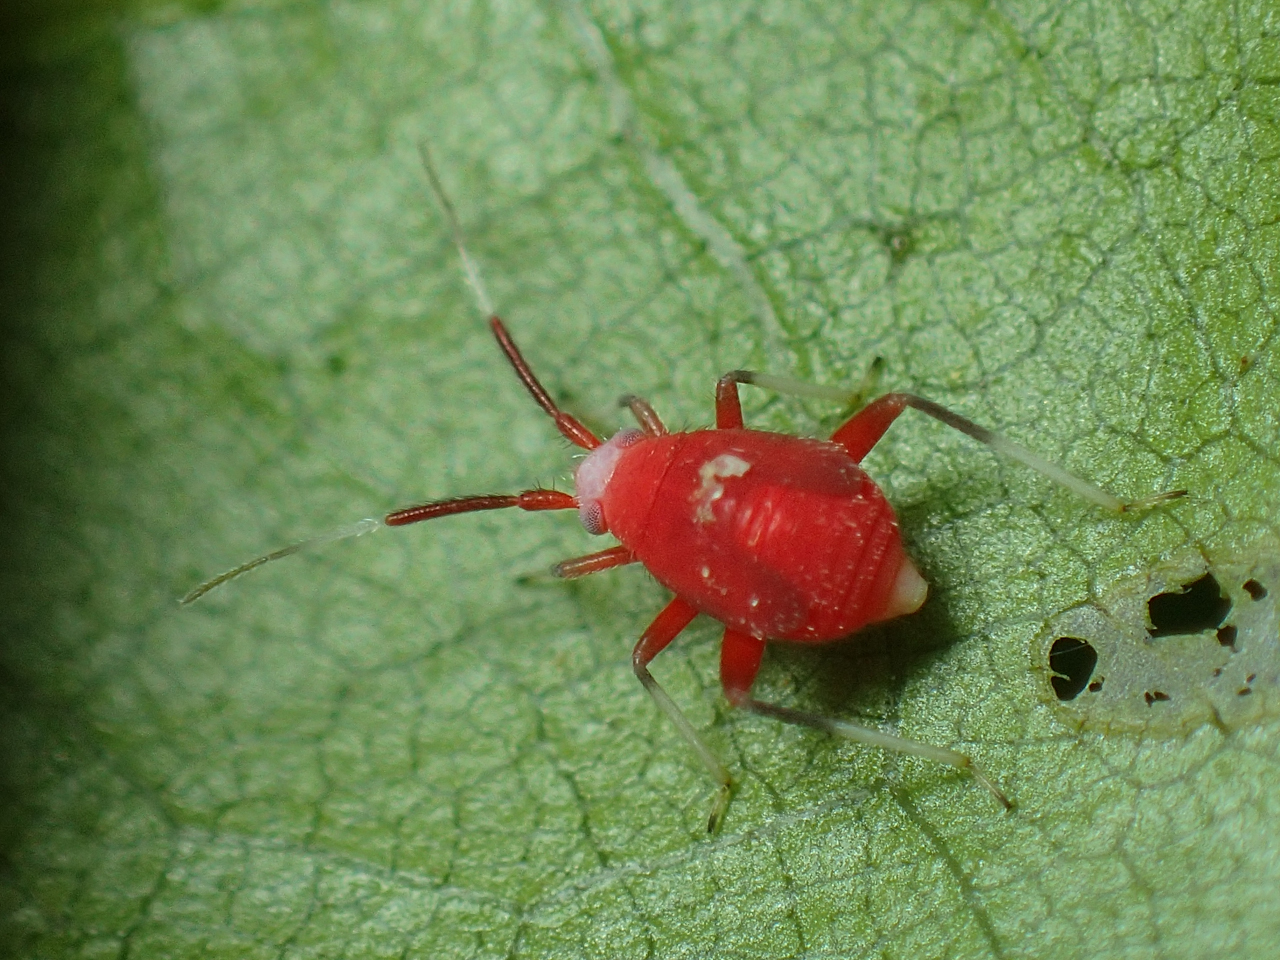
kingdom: Animalia
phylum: Arthropoda
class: Insecta
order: Hemiptera
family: Miridae
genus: Coccobaphes
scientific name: Coccobaphes frontifer
